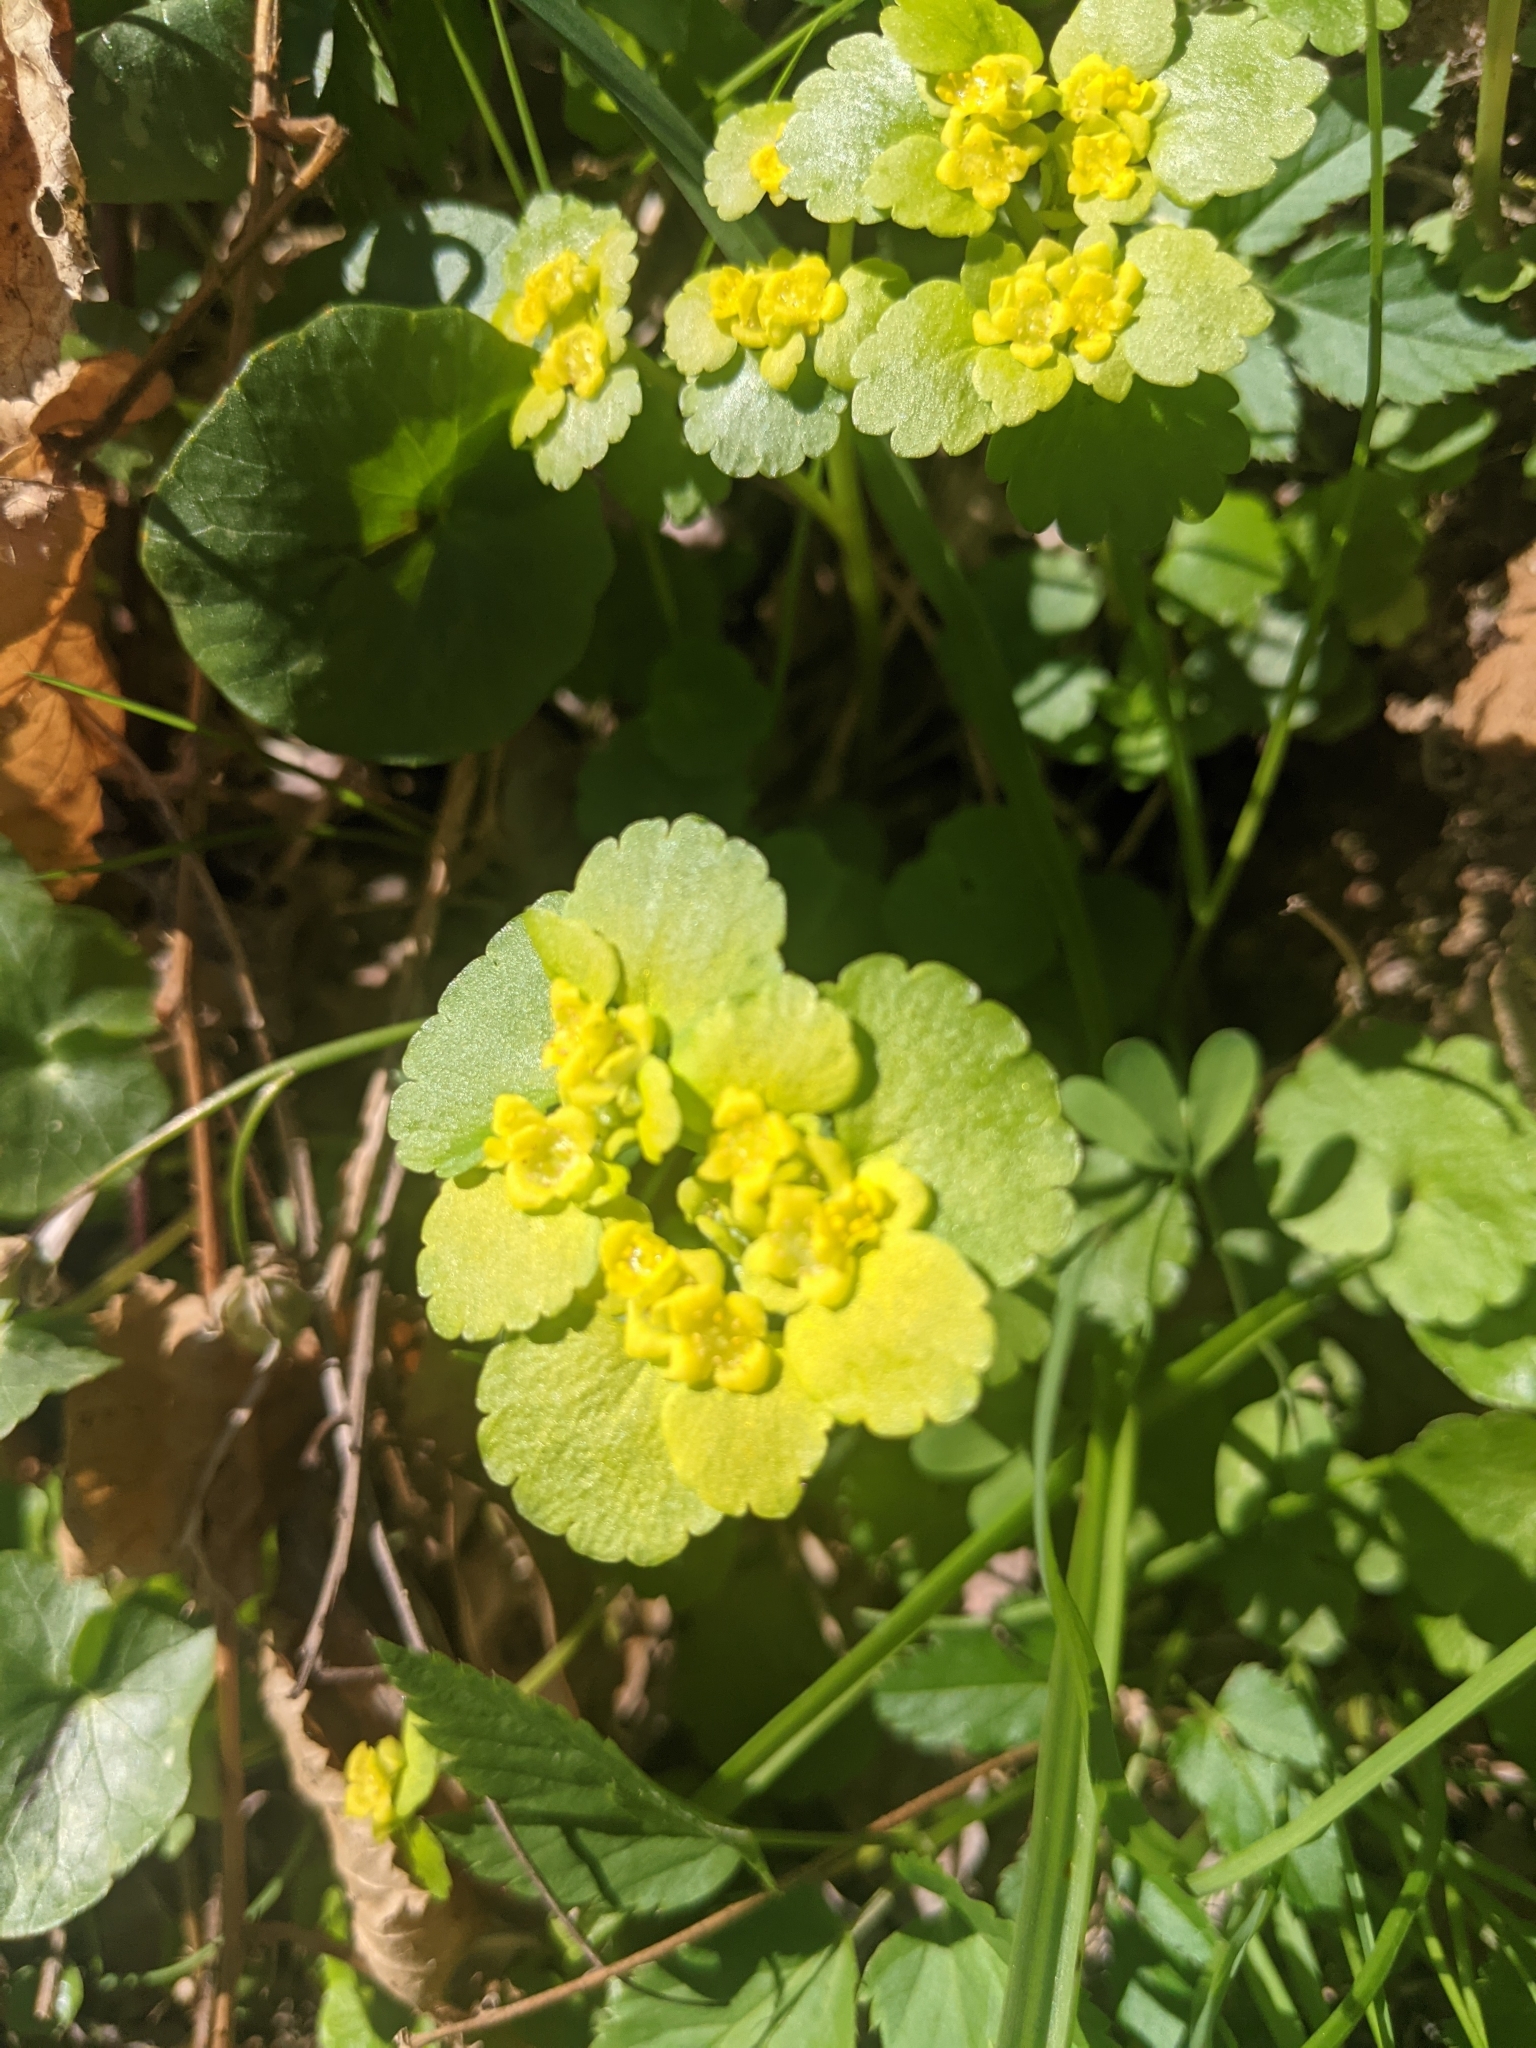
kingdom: Plantae
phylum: Tracheophyta
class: Magnoliopsida
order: Saxifragales
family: Saxifragaceae
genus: Chrysosplenium
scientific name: Chrysosplenium alternifolium
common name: Alternate-leaved golden-saxifrage
